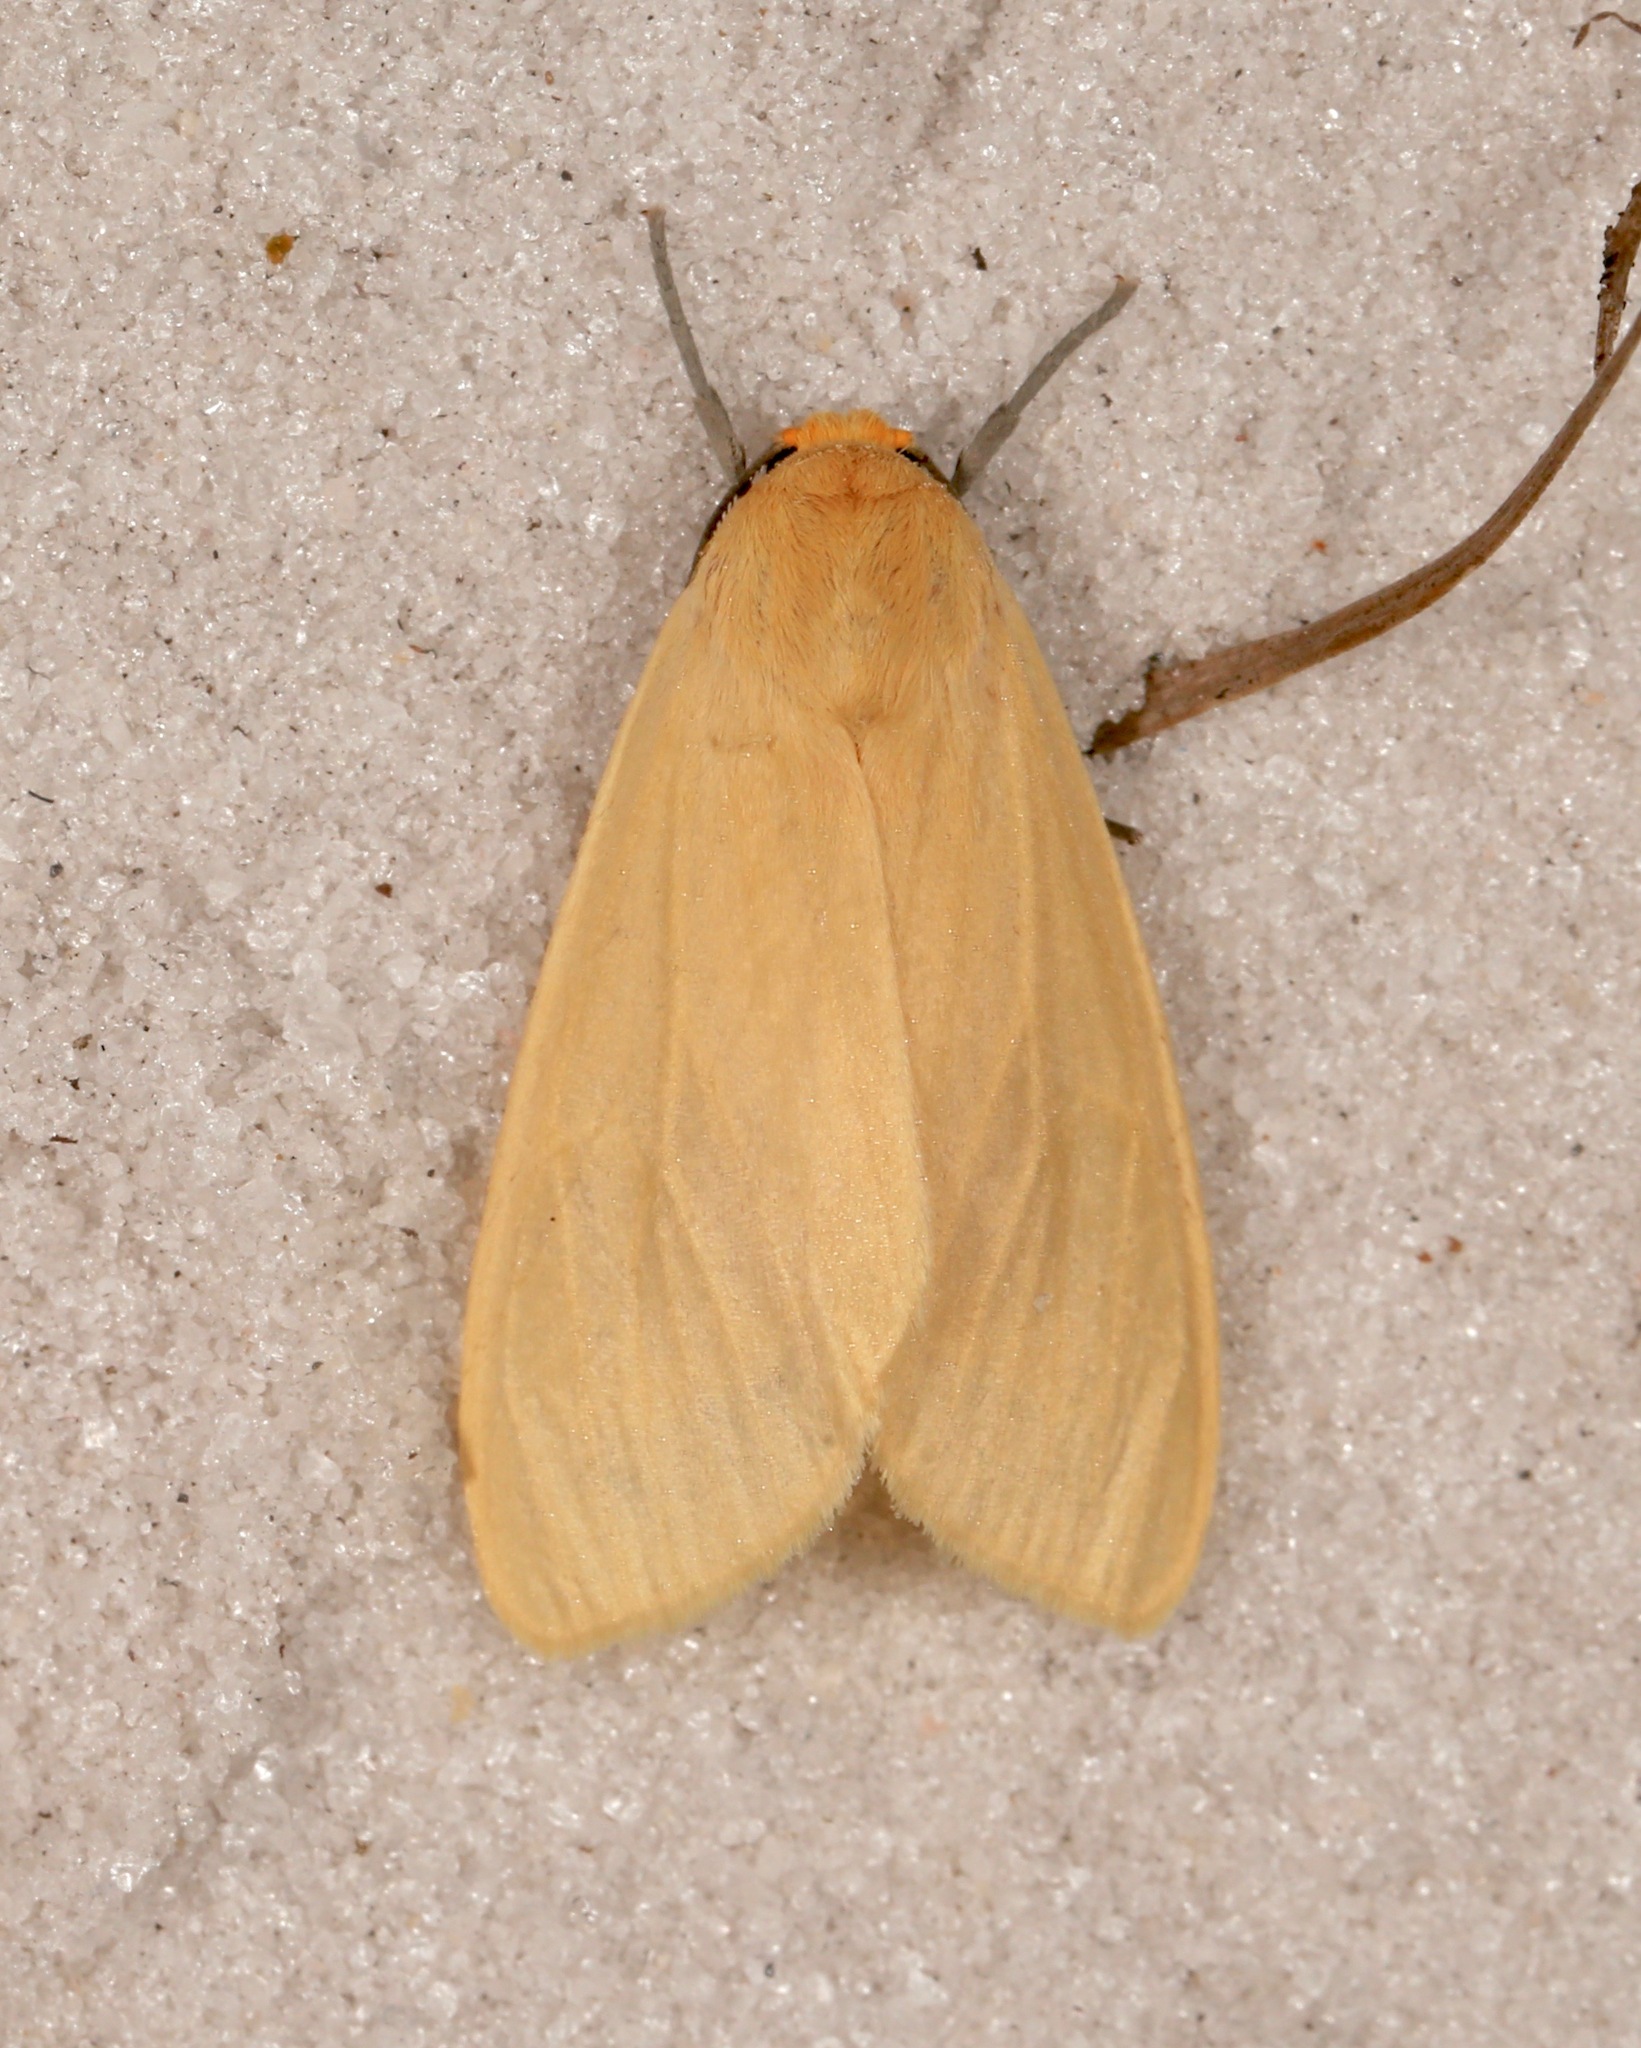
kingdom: Animalia
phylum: Arthropoda
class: Insecta
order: Lepidoptera
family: Erebidae
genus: Pareuchaetes
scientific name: Pareuchaetes insulata
